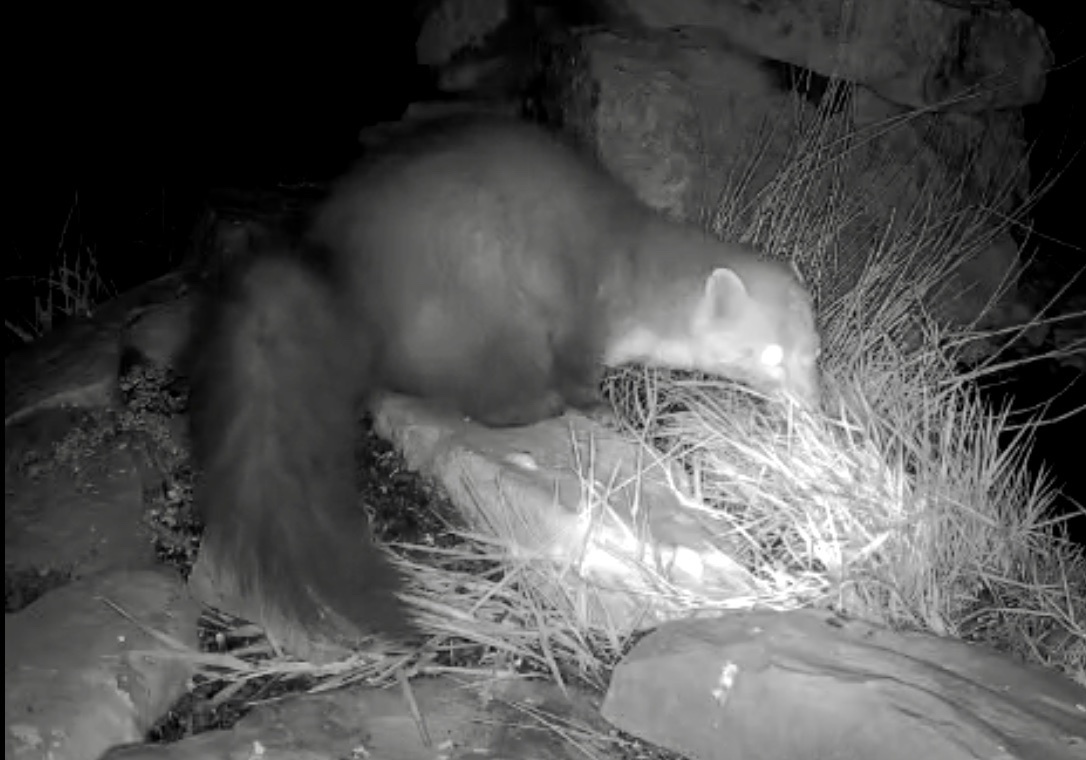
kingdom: Animalia
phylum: Chordata
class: Mammalia
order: Carnivora
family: Mustelidae
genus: Martes
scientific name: Martes foina
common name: Beech marten
